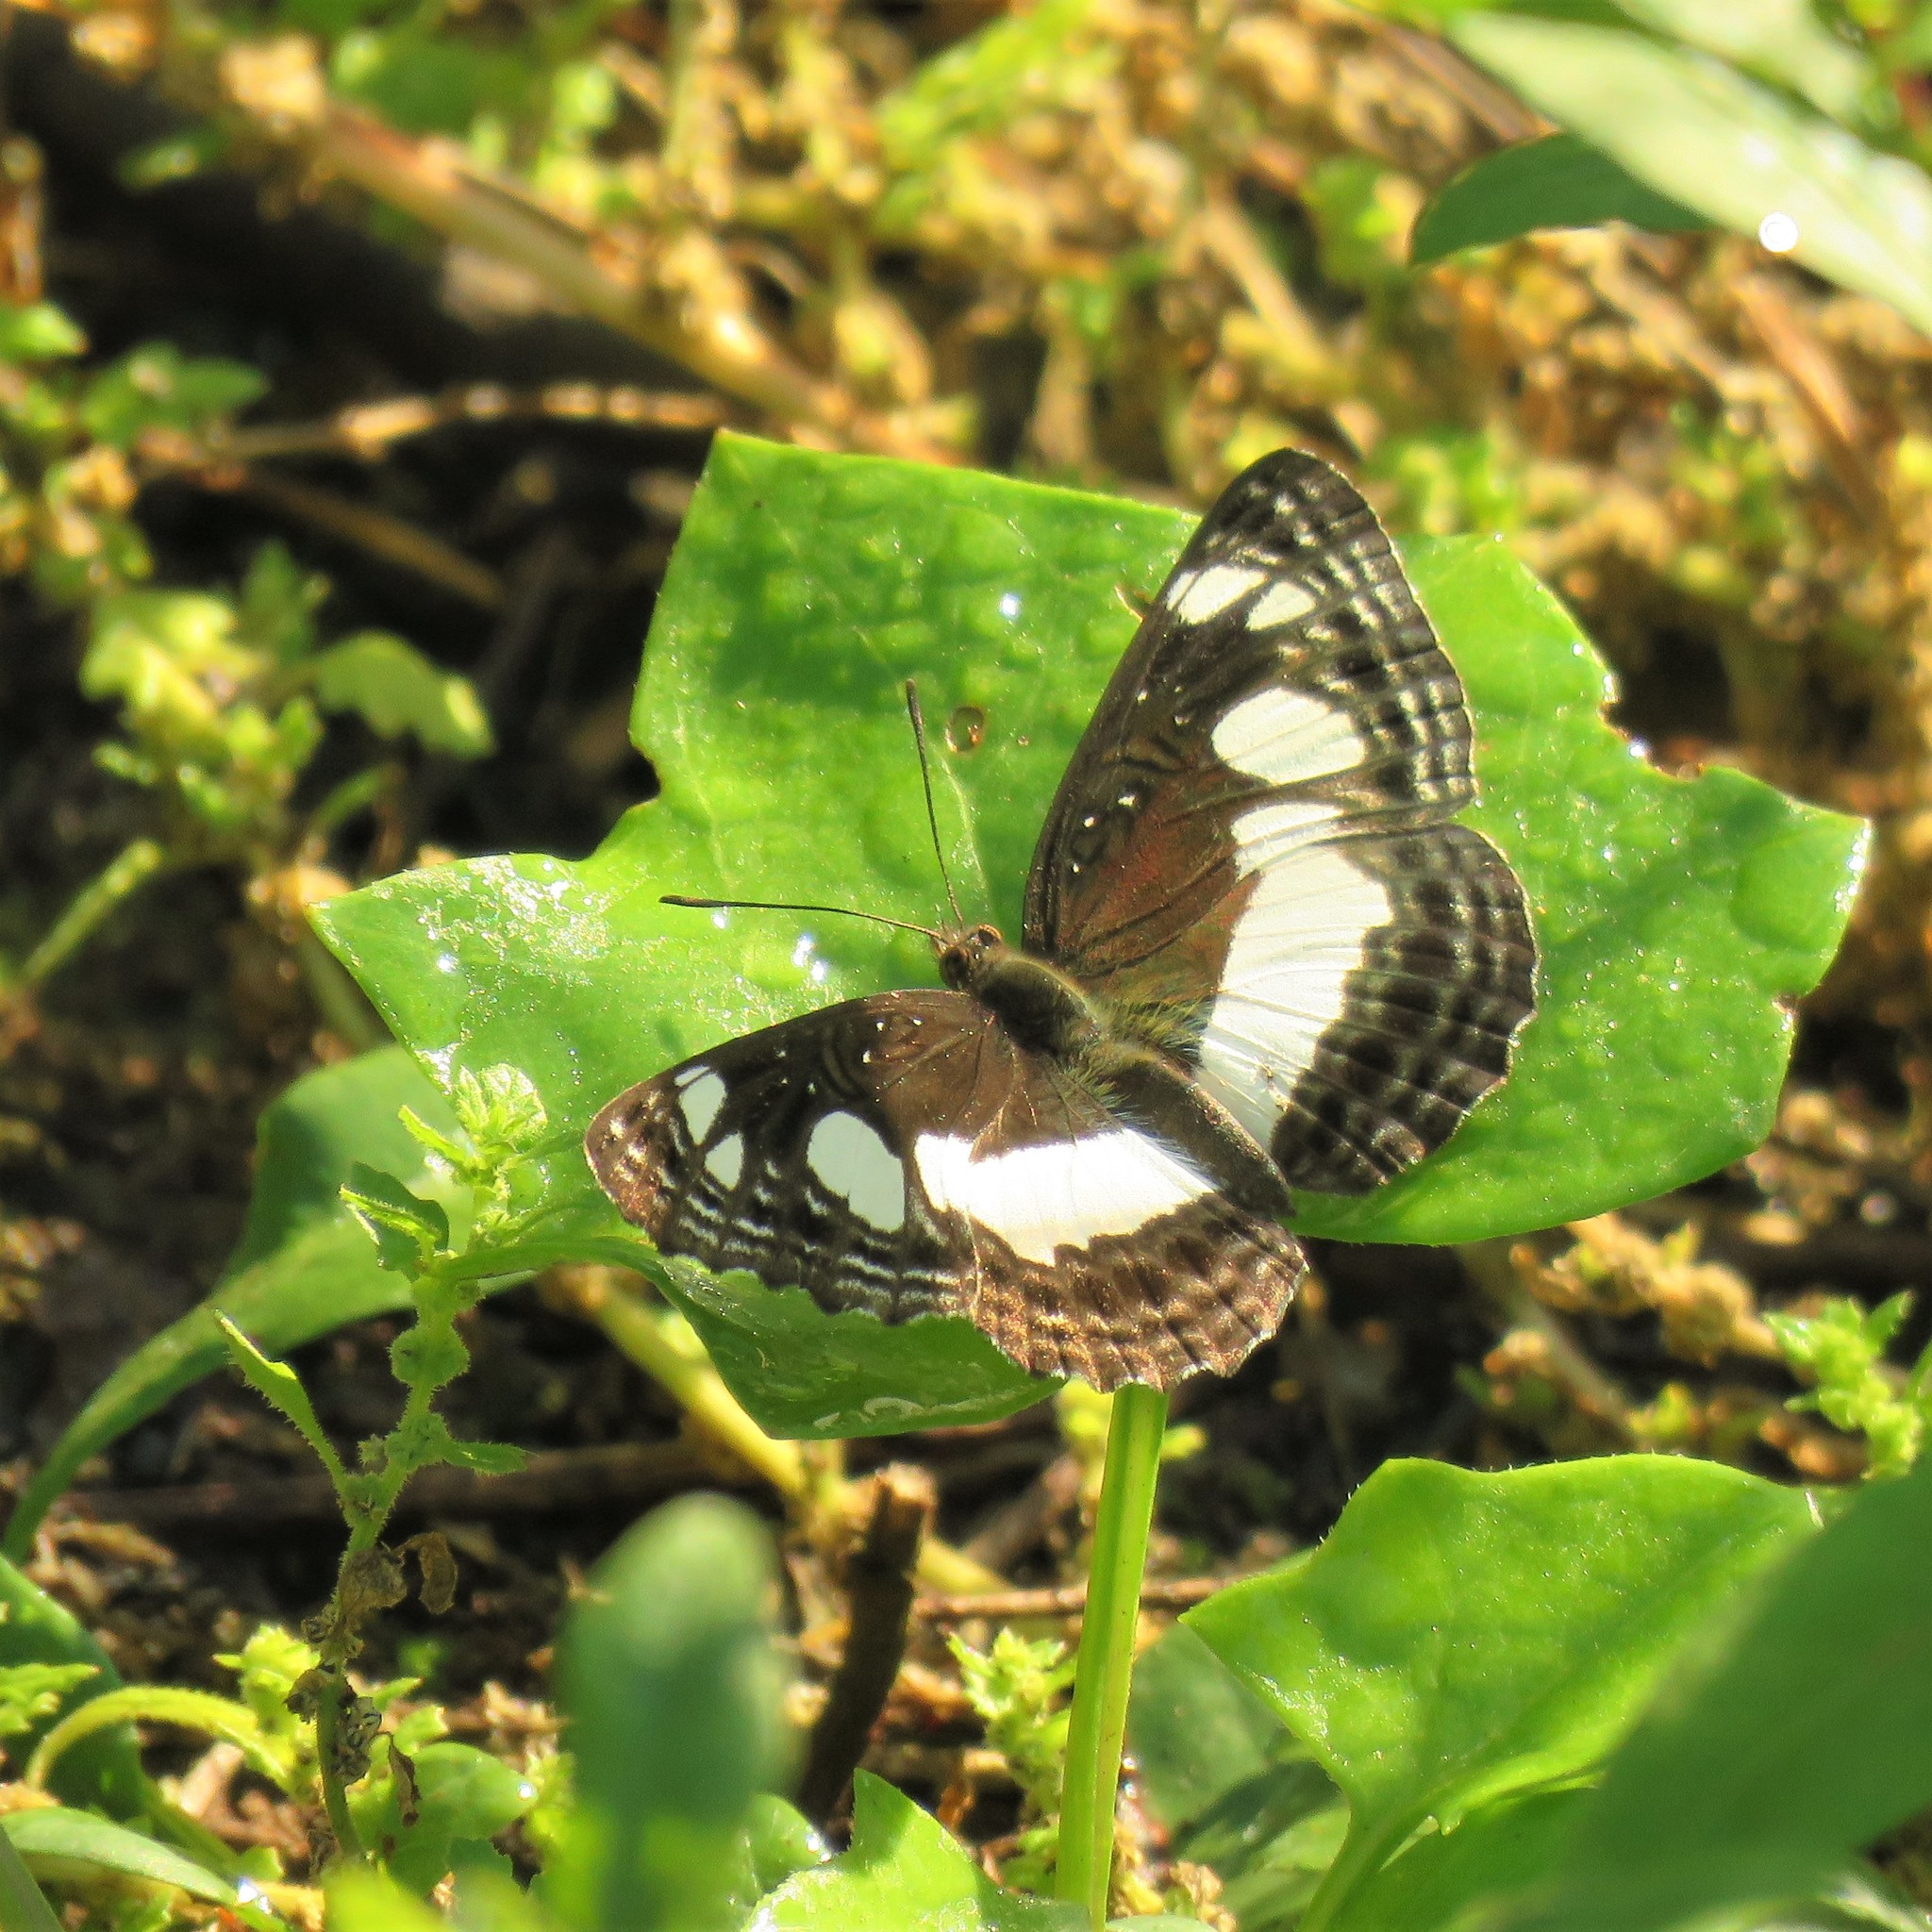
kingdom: Animalia
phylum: Arthropoda
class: Insecta
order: Lepidoptera
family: Nymphalidae
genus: Neptis
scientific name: Neptis saclava
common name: Small spotted sailor
